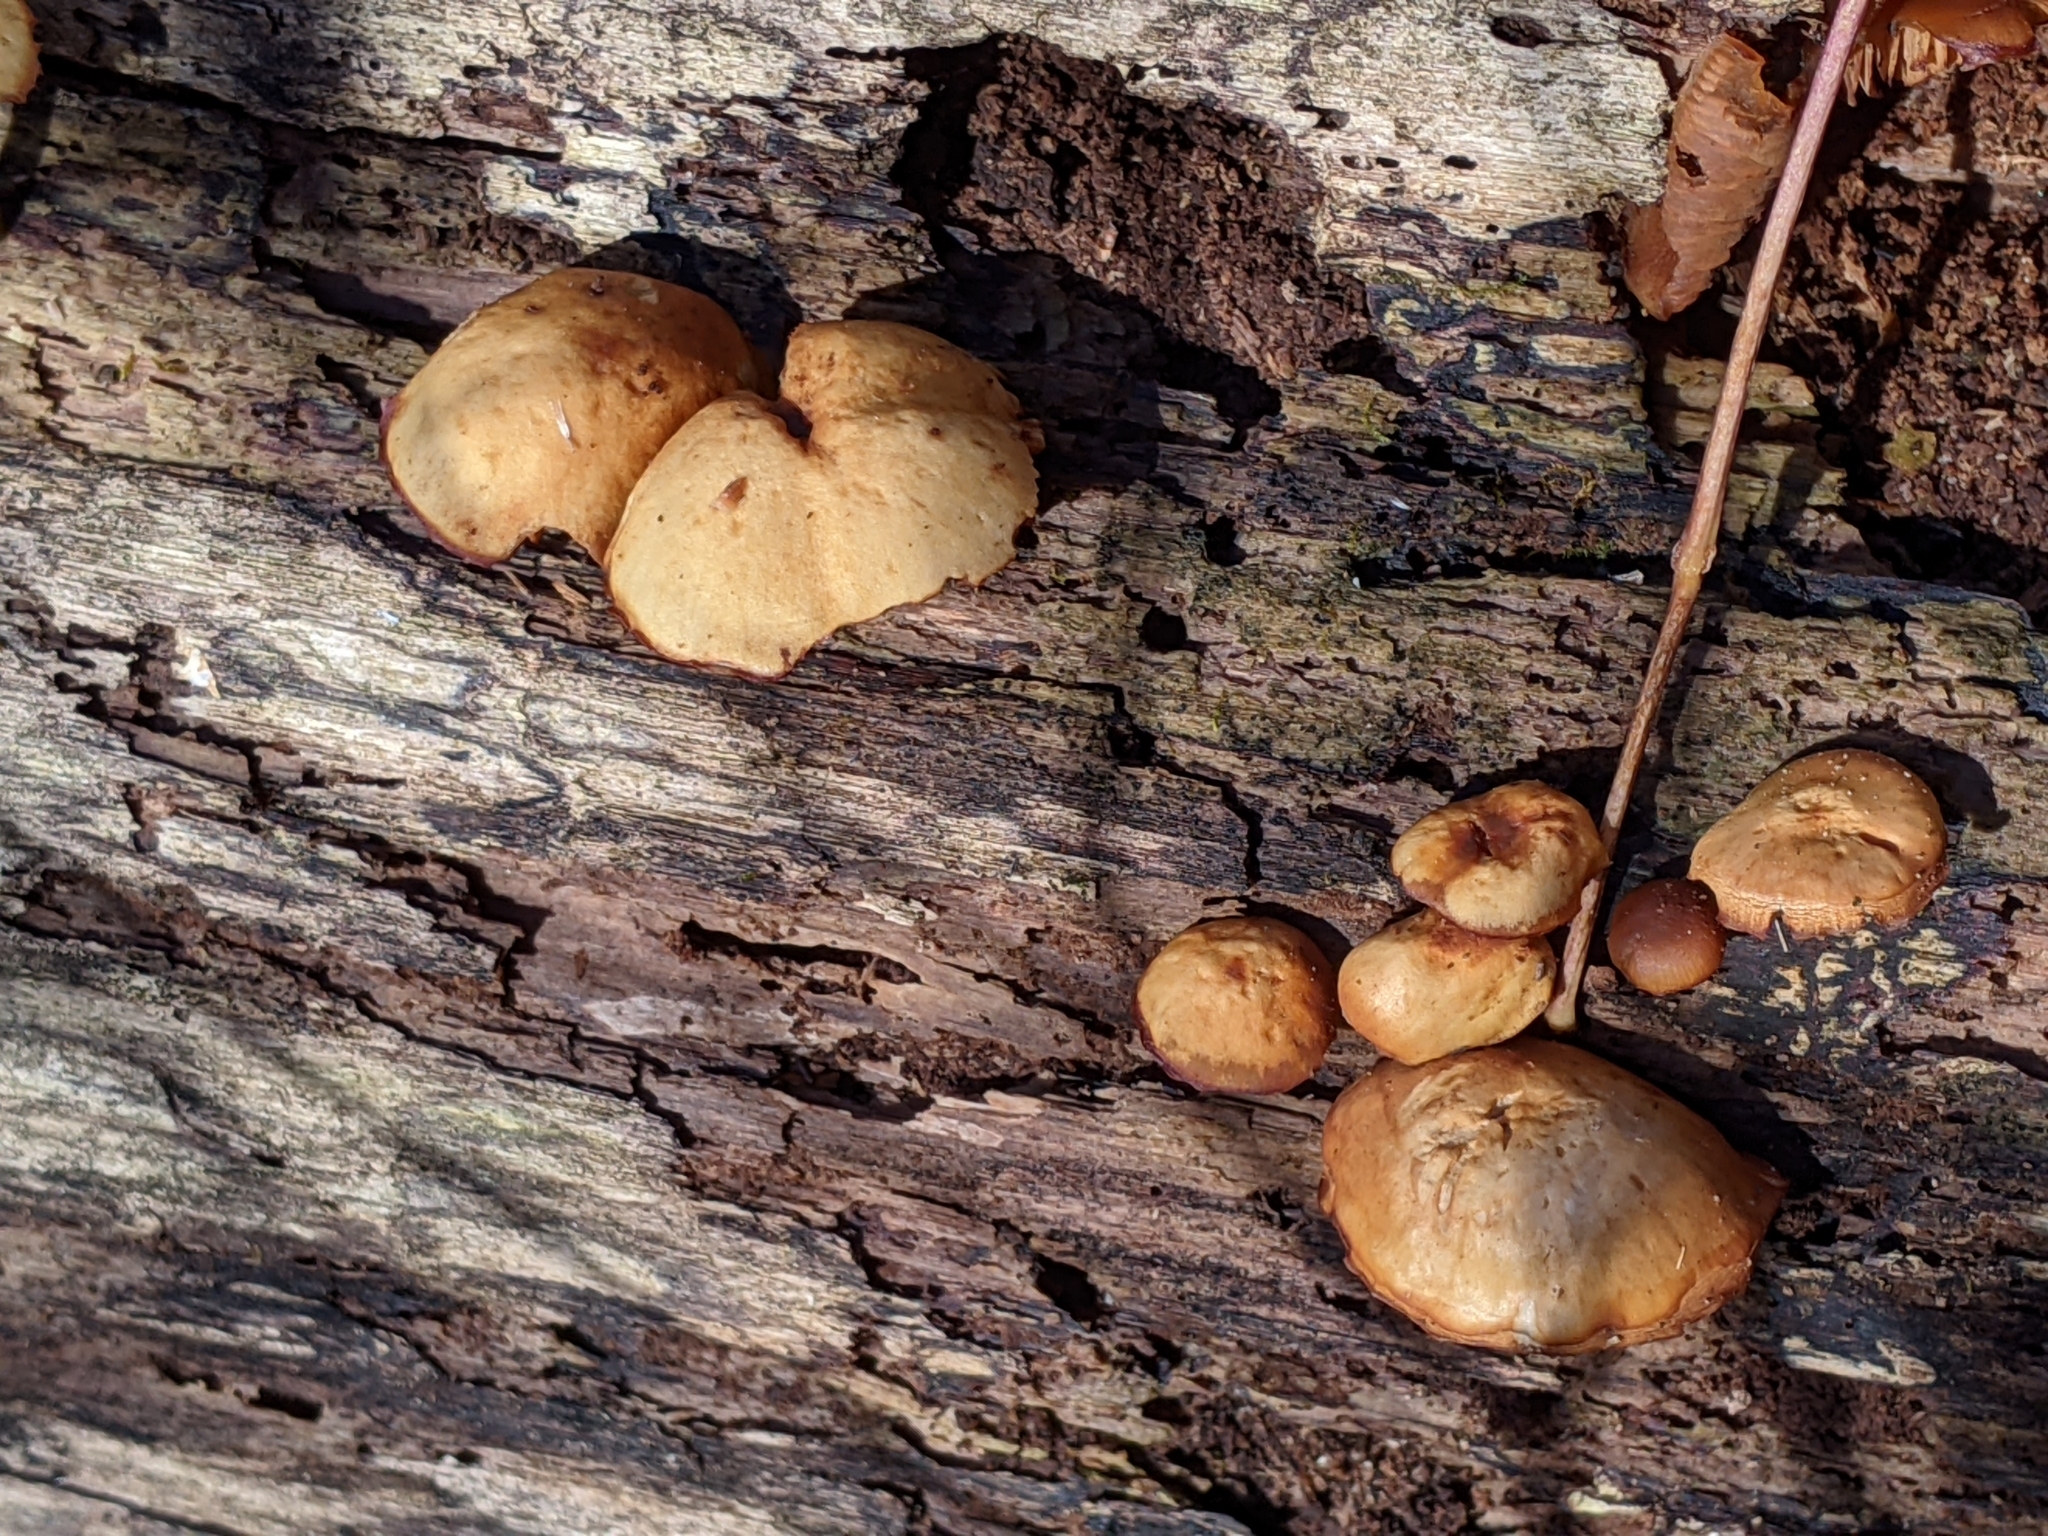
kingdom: Fungi
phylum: Basidiomycota
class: Agaricomycetes
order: Agaricales
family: Hymenogastraceae
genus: Galerina
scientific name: Galerina marginata
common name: Funeral bell
